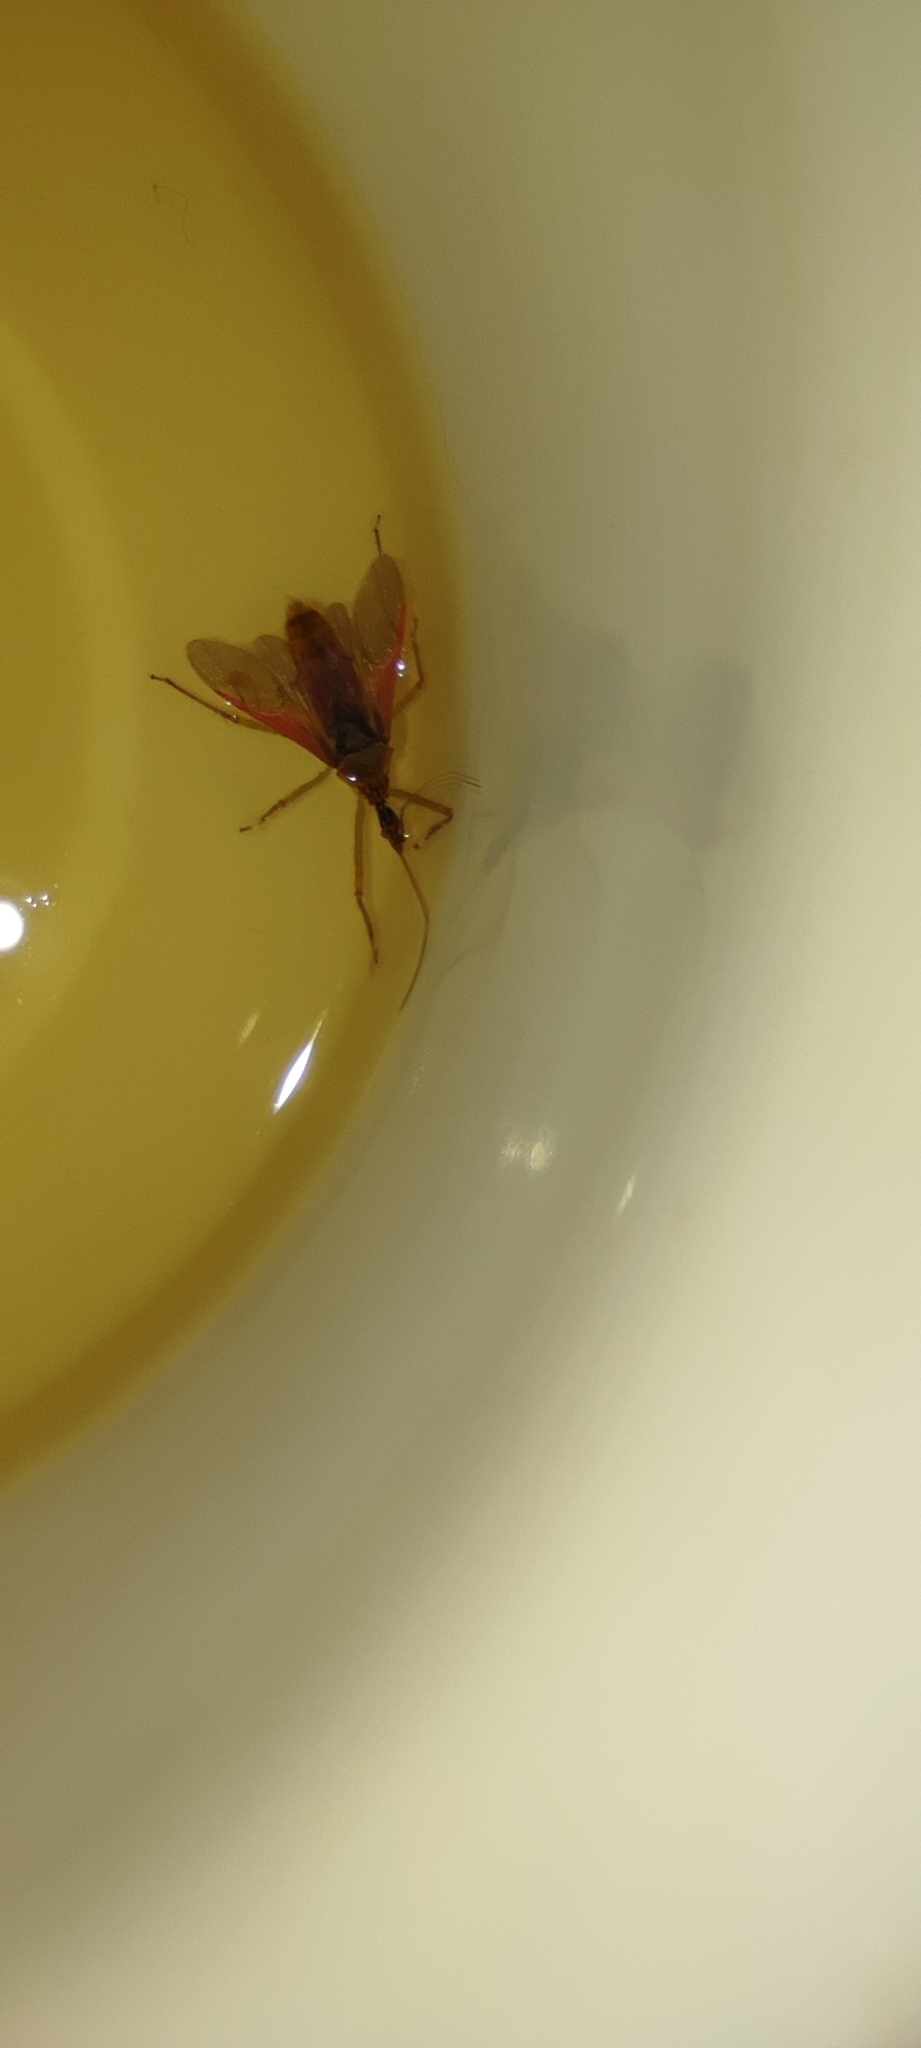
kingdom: Animalia
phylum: Arthropoda
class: Insecta
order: Hemiptera
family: Reduviidae
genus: Zelus
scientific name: Zelus renardii
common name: Assassin bug
